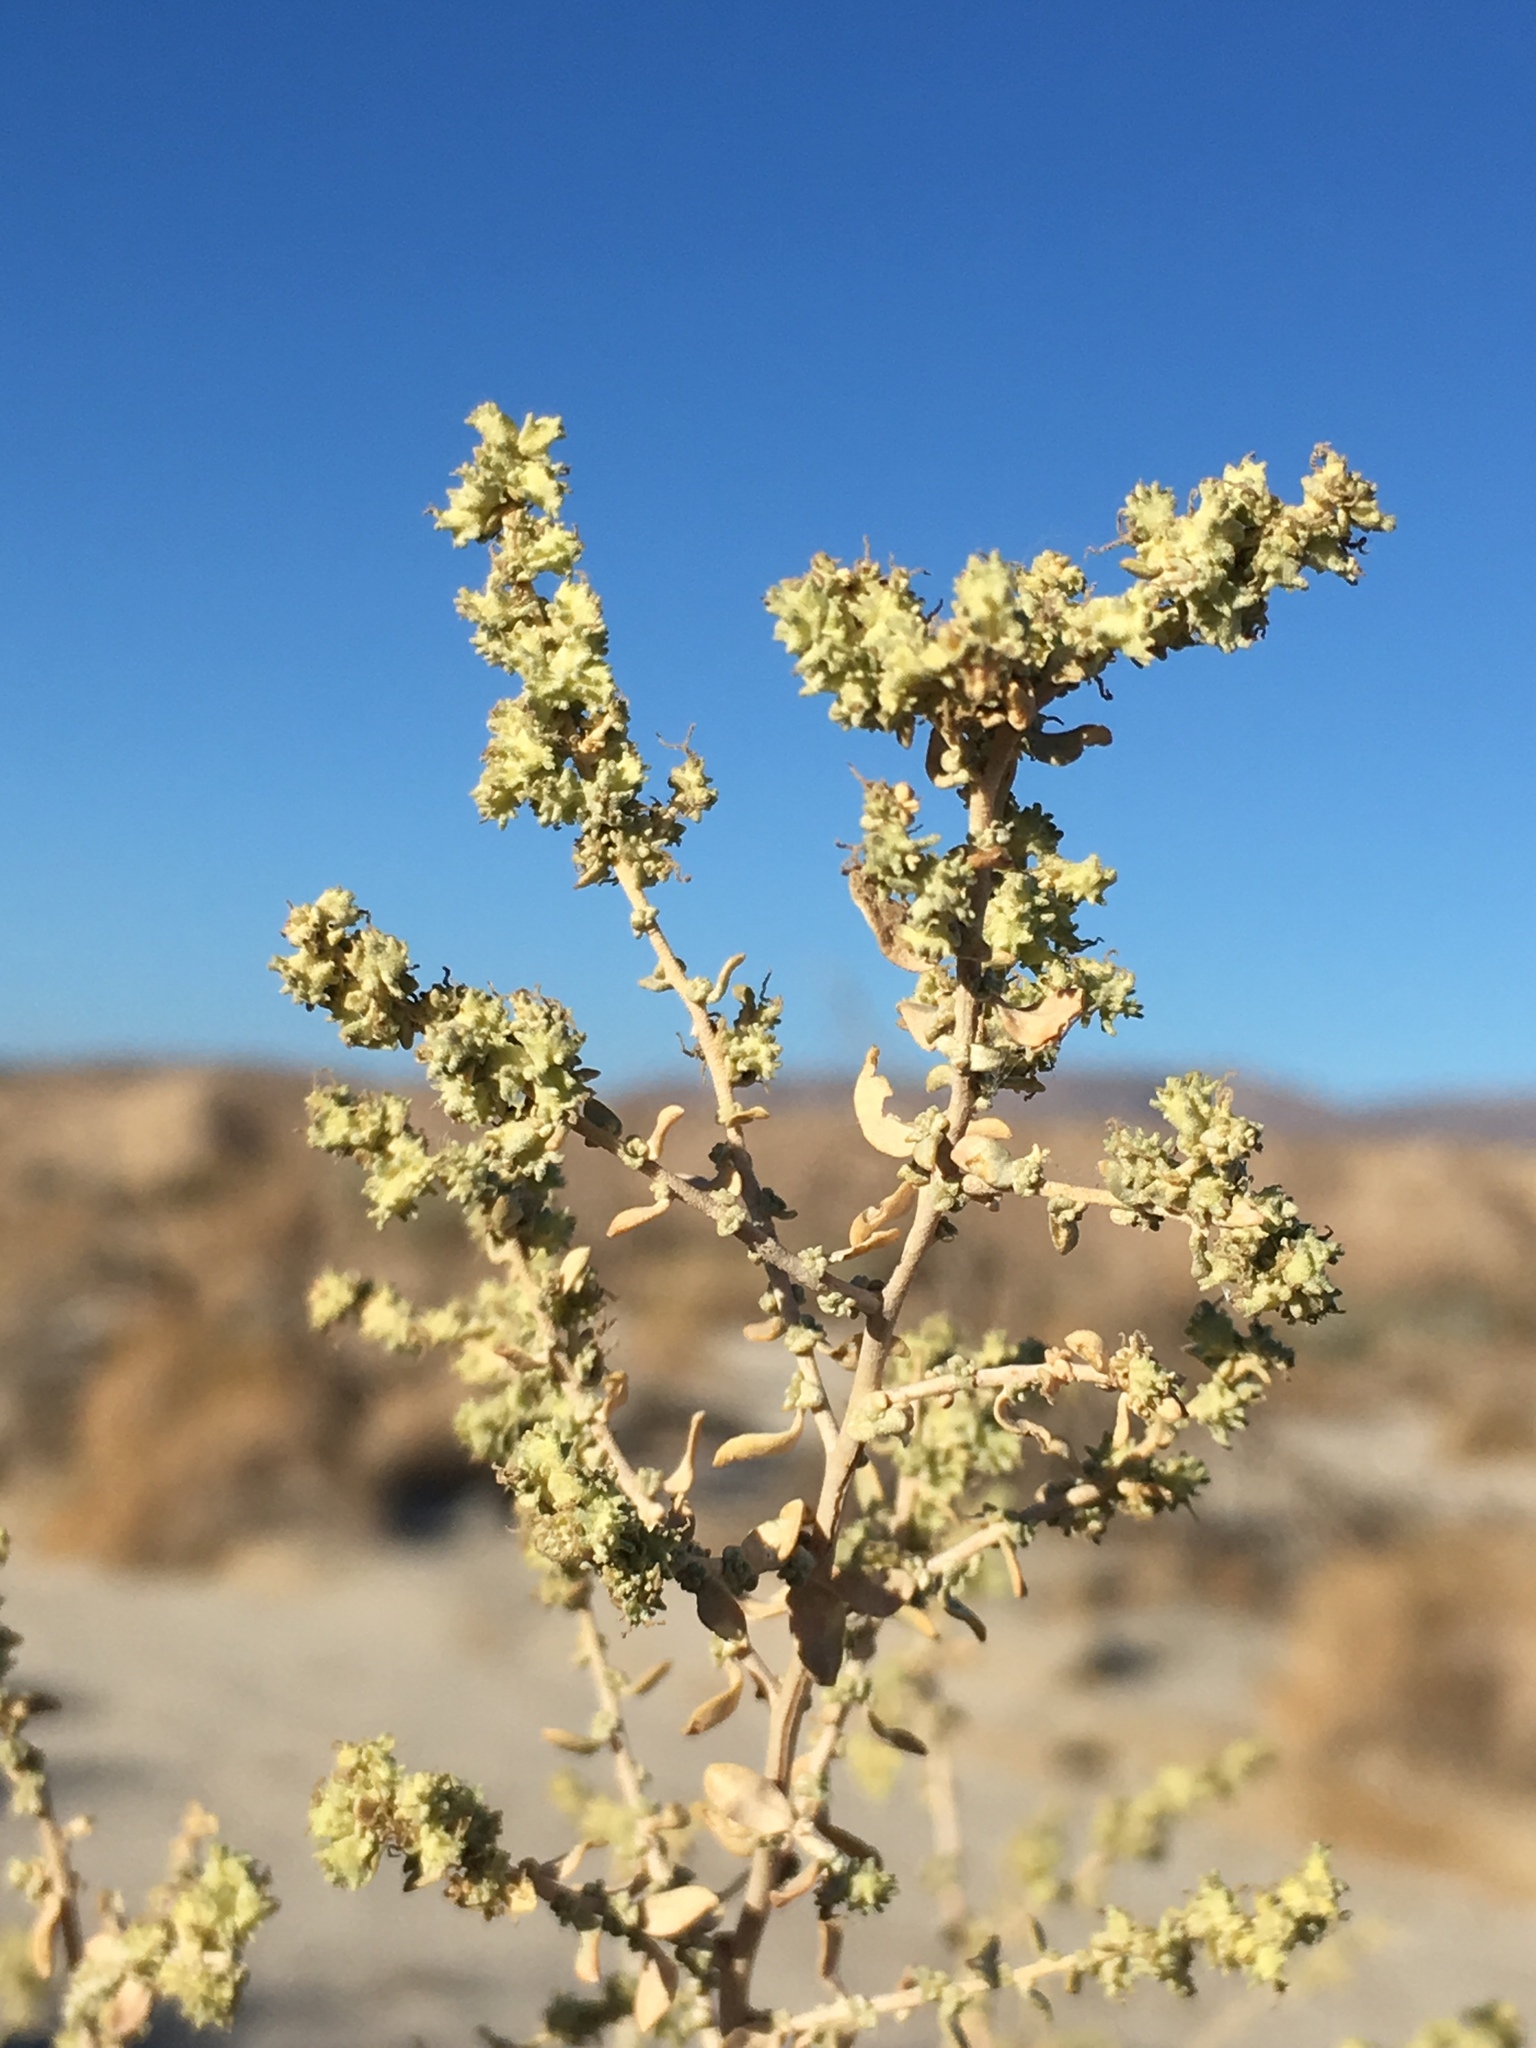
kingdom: Plantae
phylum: Tracheophyta
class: Magnoliopsida
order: Caryophyllales
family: Amaranthaceae
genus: Atriplex
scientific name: Atriplex polycarpa
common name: Desert saltbush
